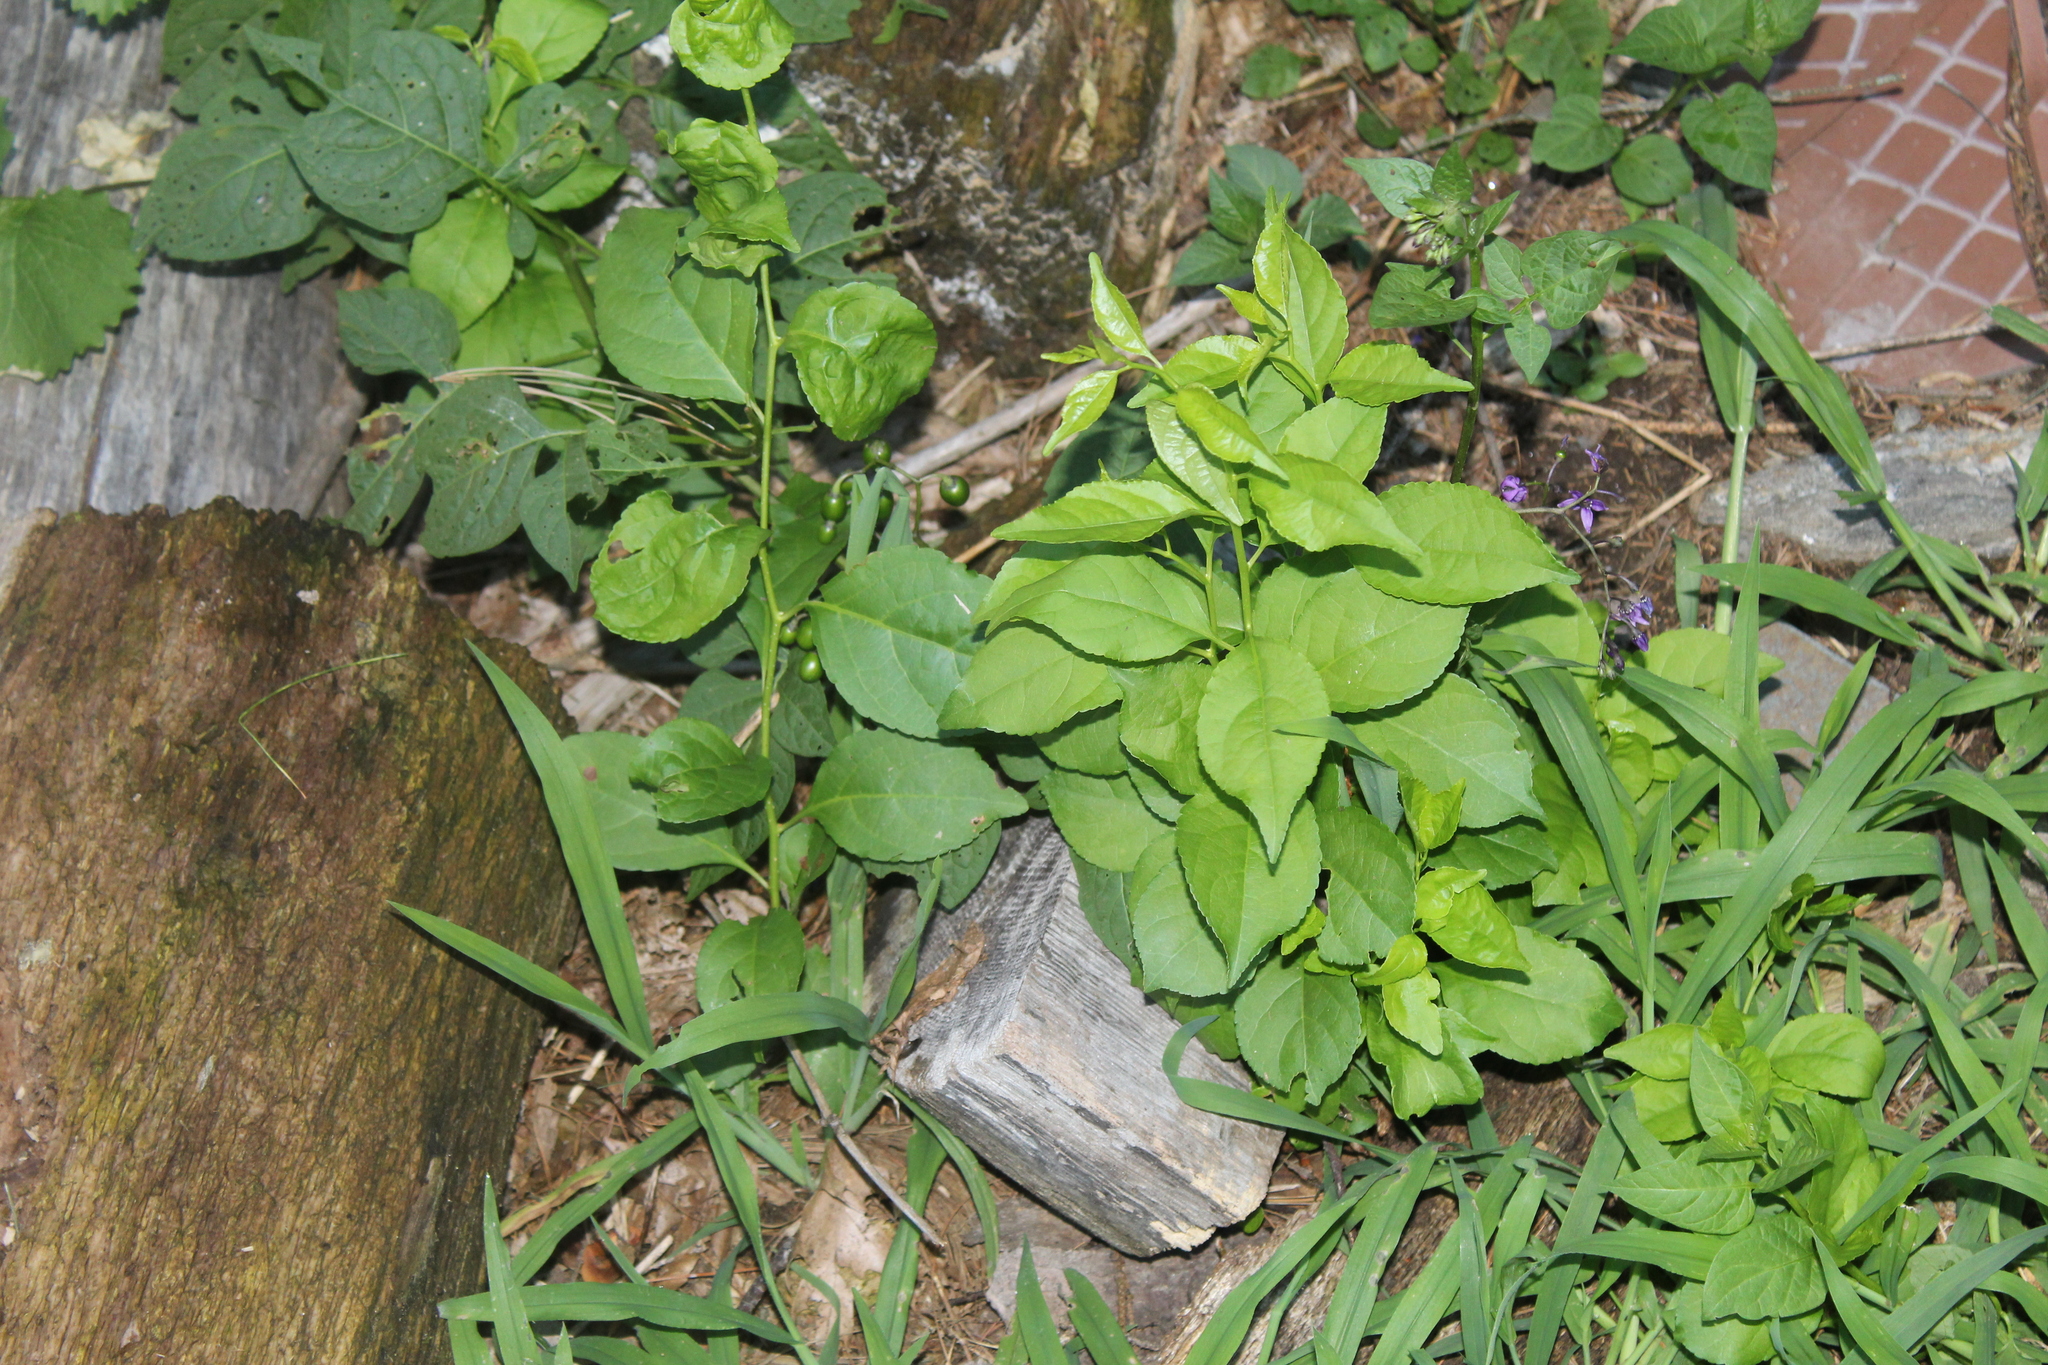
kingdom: Plantae
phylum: Tracheophyta
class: Magnoliopsida
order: Celastrales
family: Celastraceae
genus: Celastrus
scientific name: Celastrus orbiculatus
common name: Oriental bittersweet
